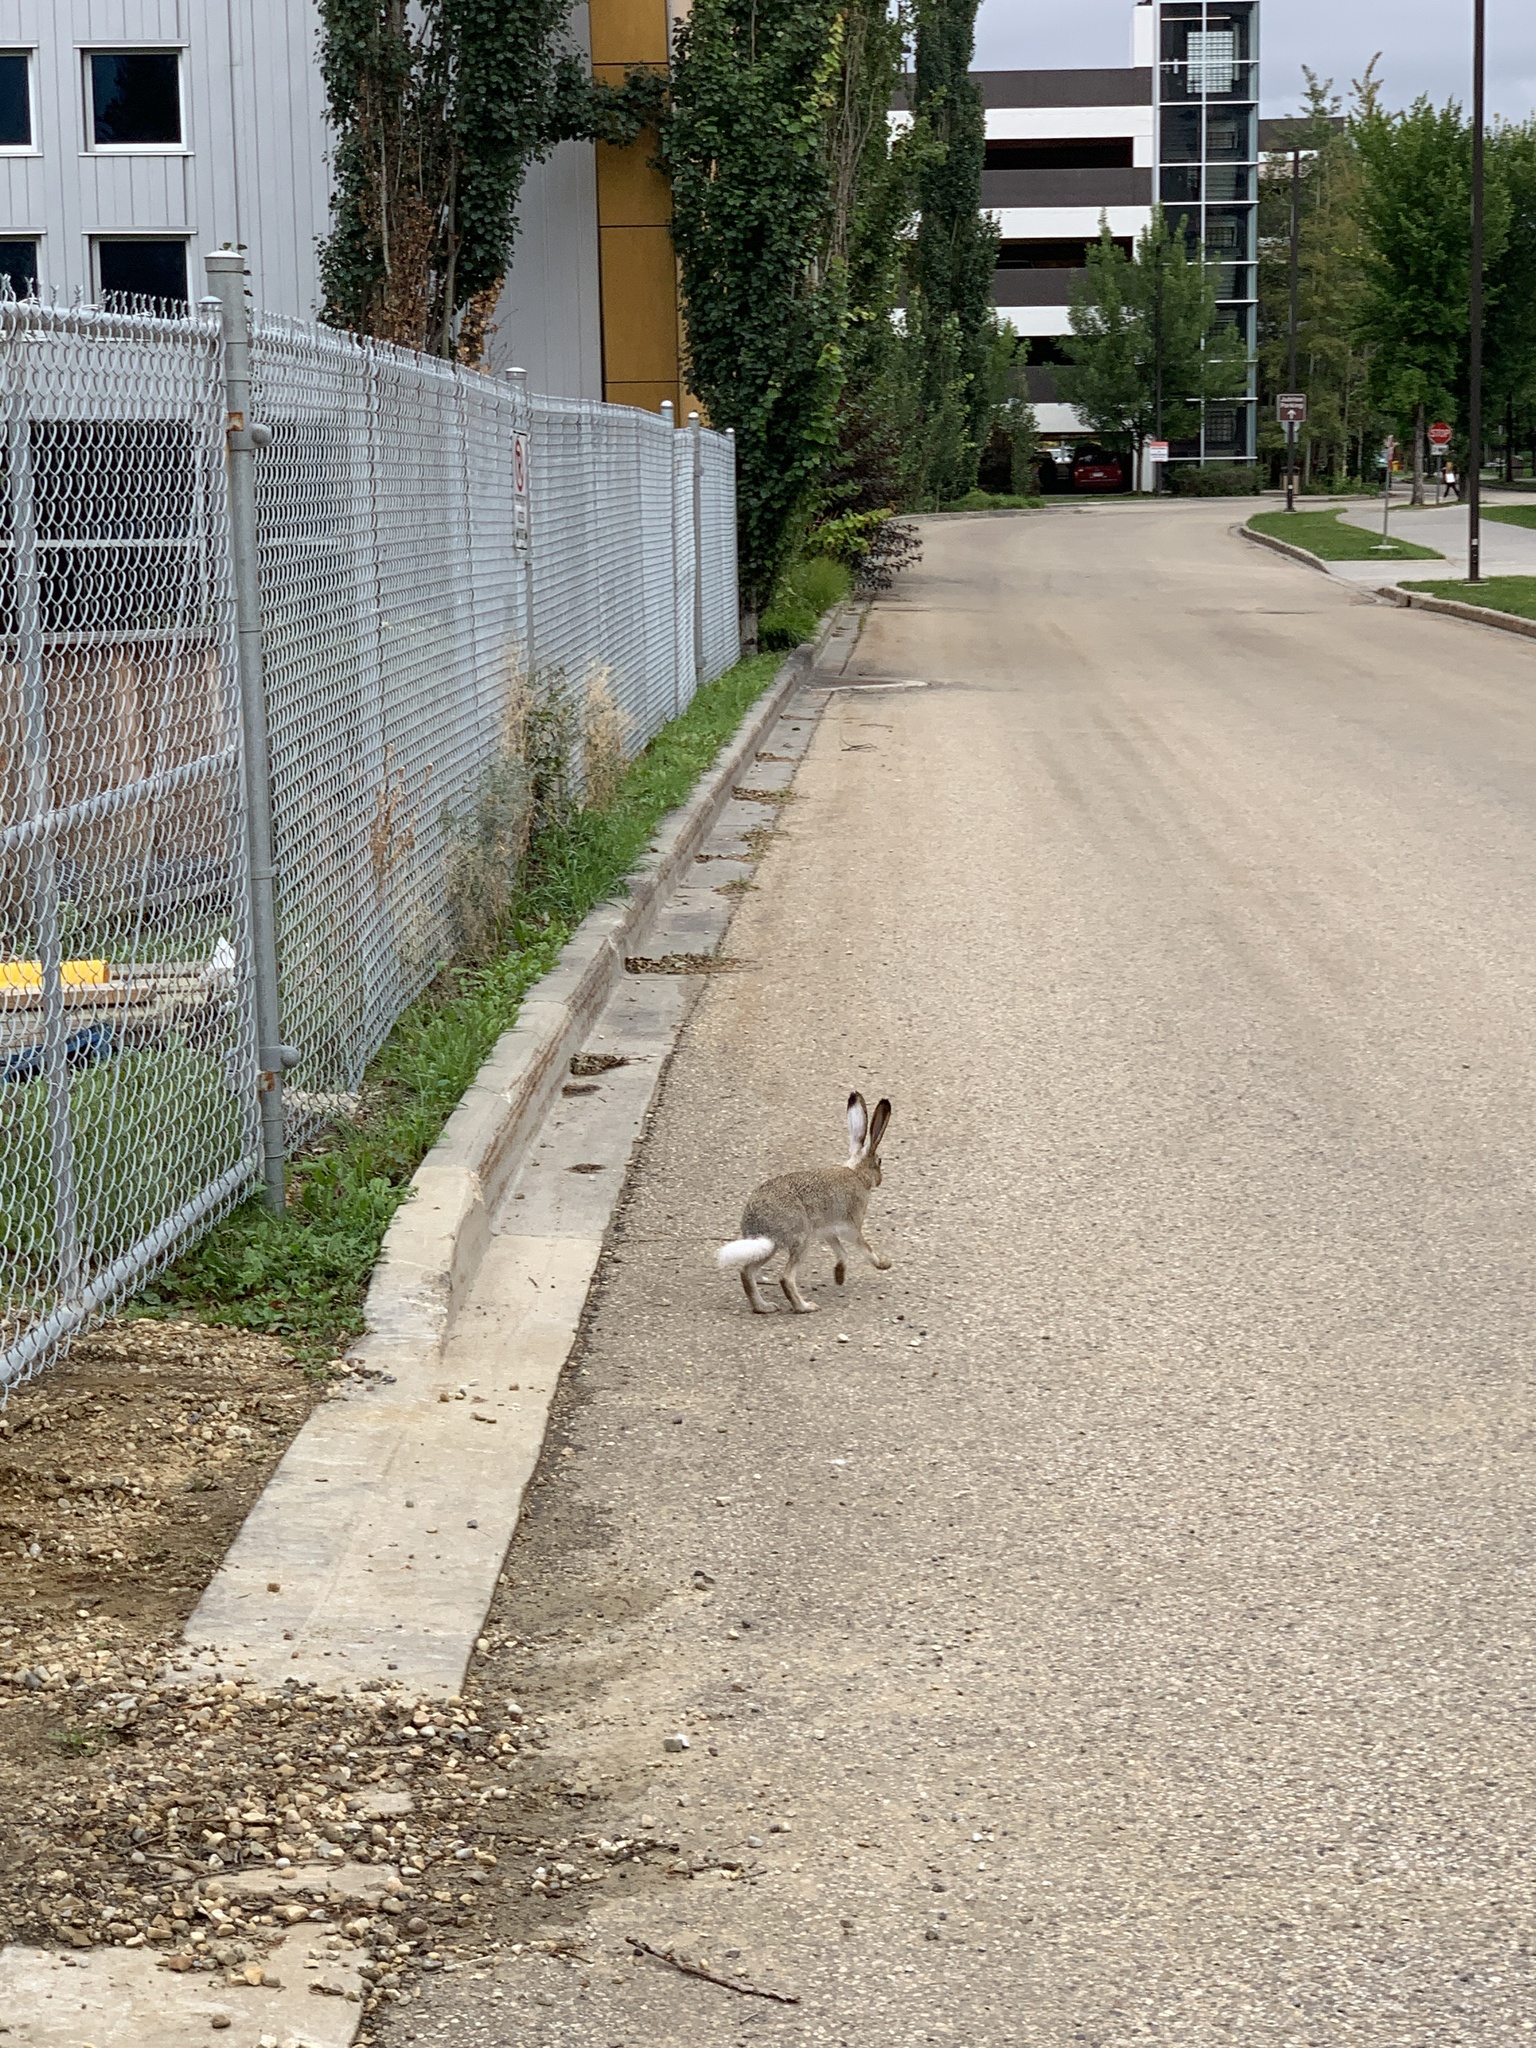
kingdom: Animalia
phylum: Chordata
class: Mammalia
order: Lagomorpha
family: Leporidae
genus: Lepus
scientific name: Lepus townsendii
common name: White-tailed jackrabbit
